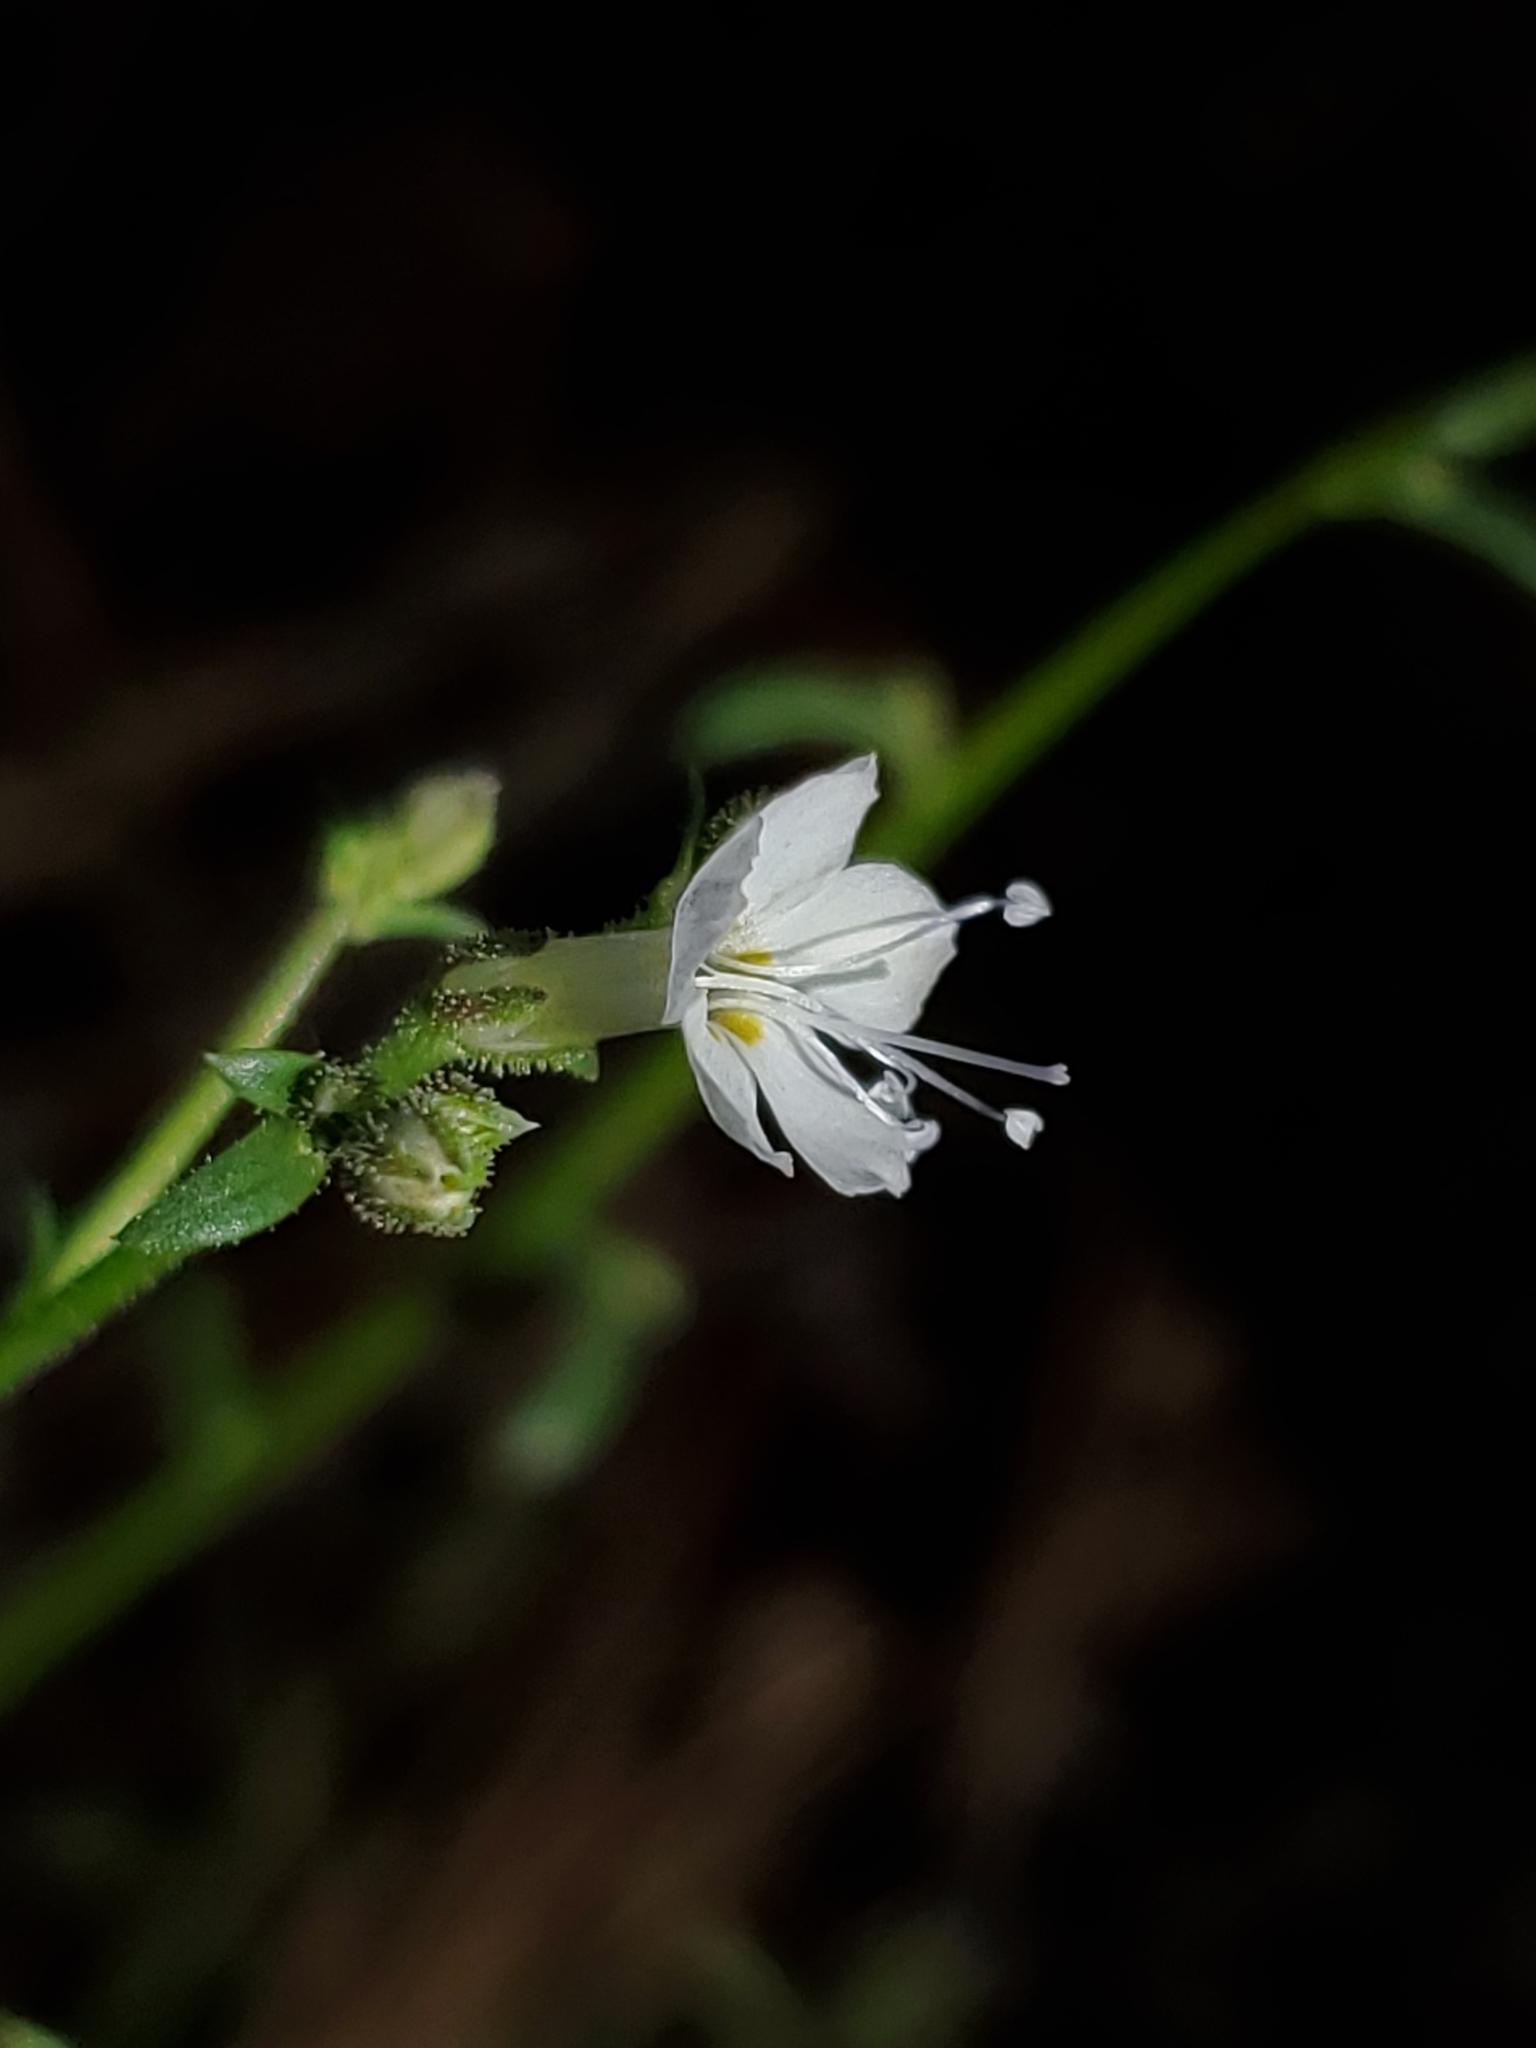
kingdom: Plantae
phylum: Tracheophyta
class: Magnoliopsida
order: Ericales
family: Polemoniaceae
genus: Aliciella
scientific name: Aliciella pinnatifida
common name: Sticky gilia
